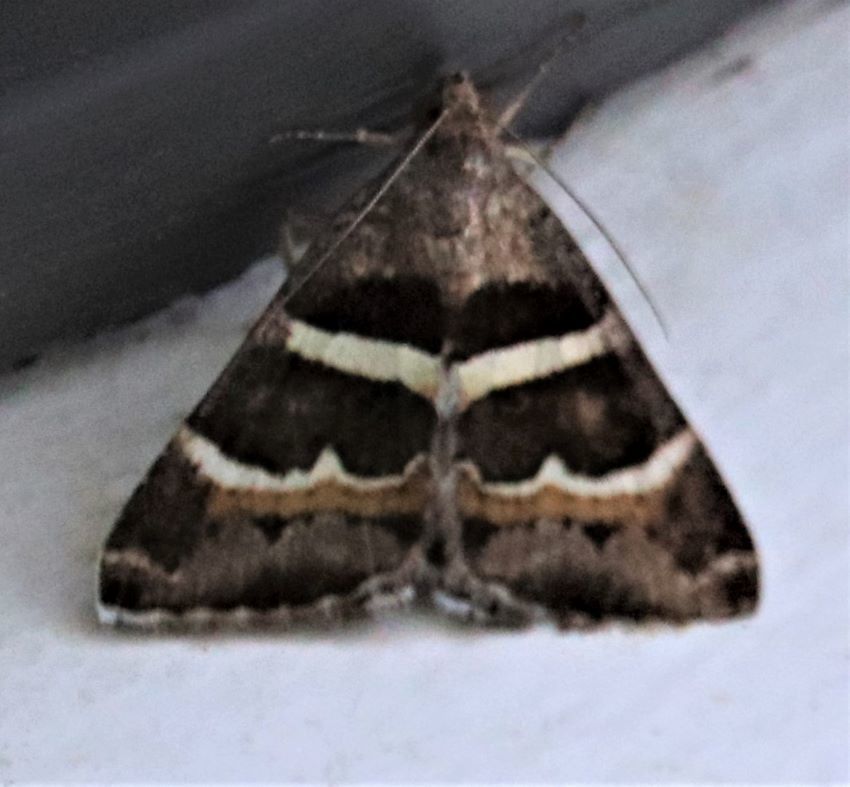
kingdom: Animalia
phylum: Arthropoda
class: Insecta
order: Lepidoptera
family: Erebidae
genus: Grammodes
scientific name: Grammodes stolida
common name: Geometrician
